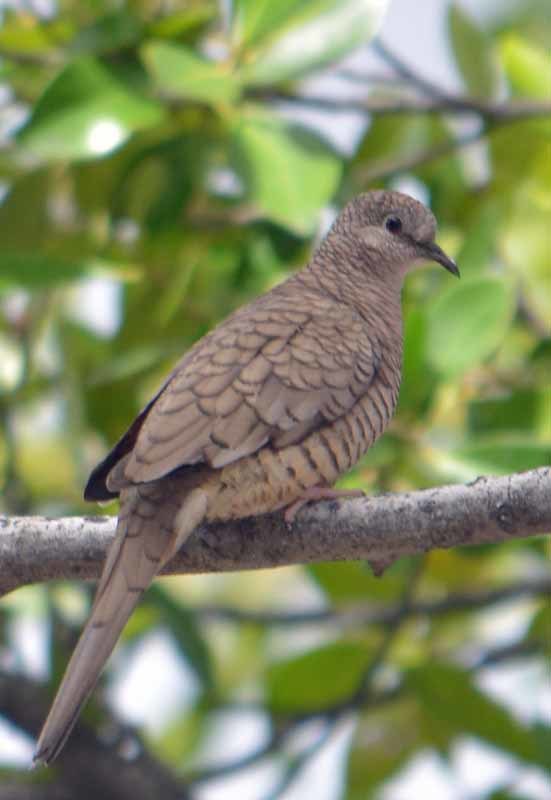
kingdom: Animalia
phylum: Chordata
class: Aves
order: Columbiformes
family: Columbidae
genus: Columbina
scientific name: Columbina inca
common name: Inca dove
